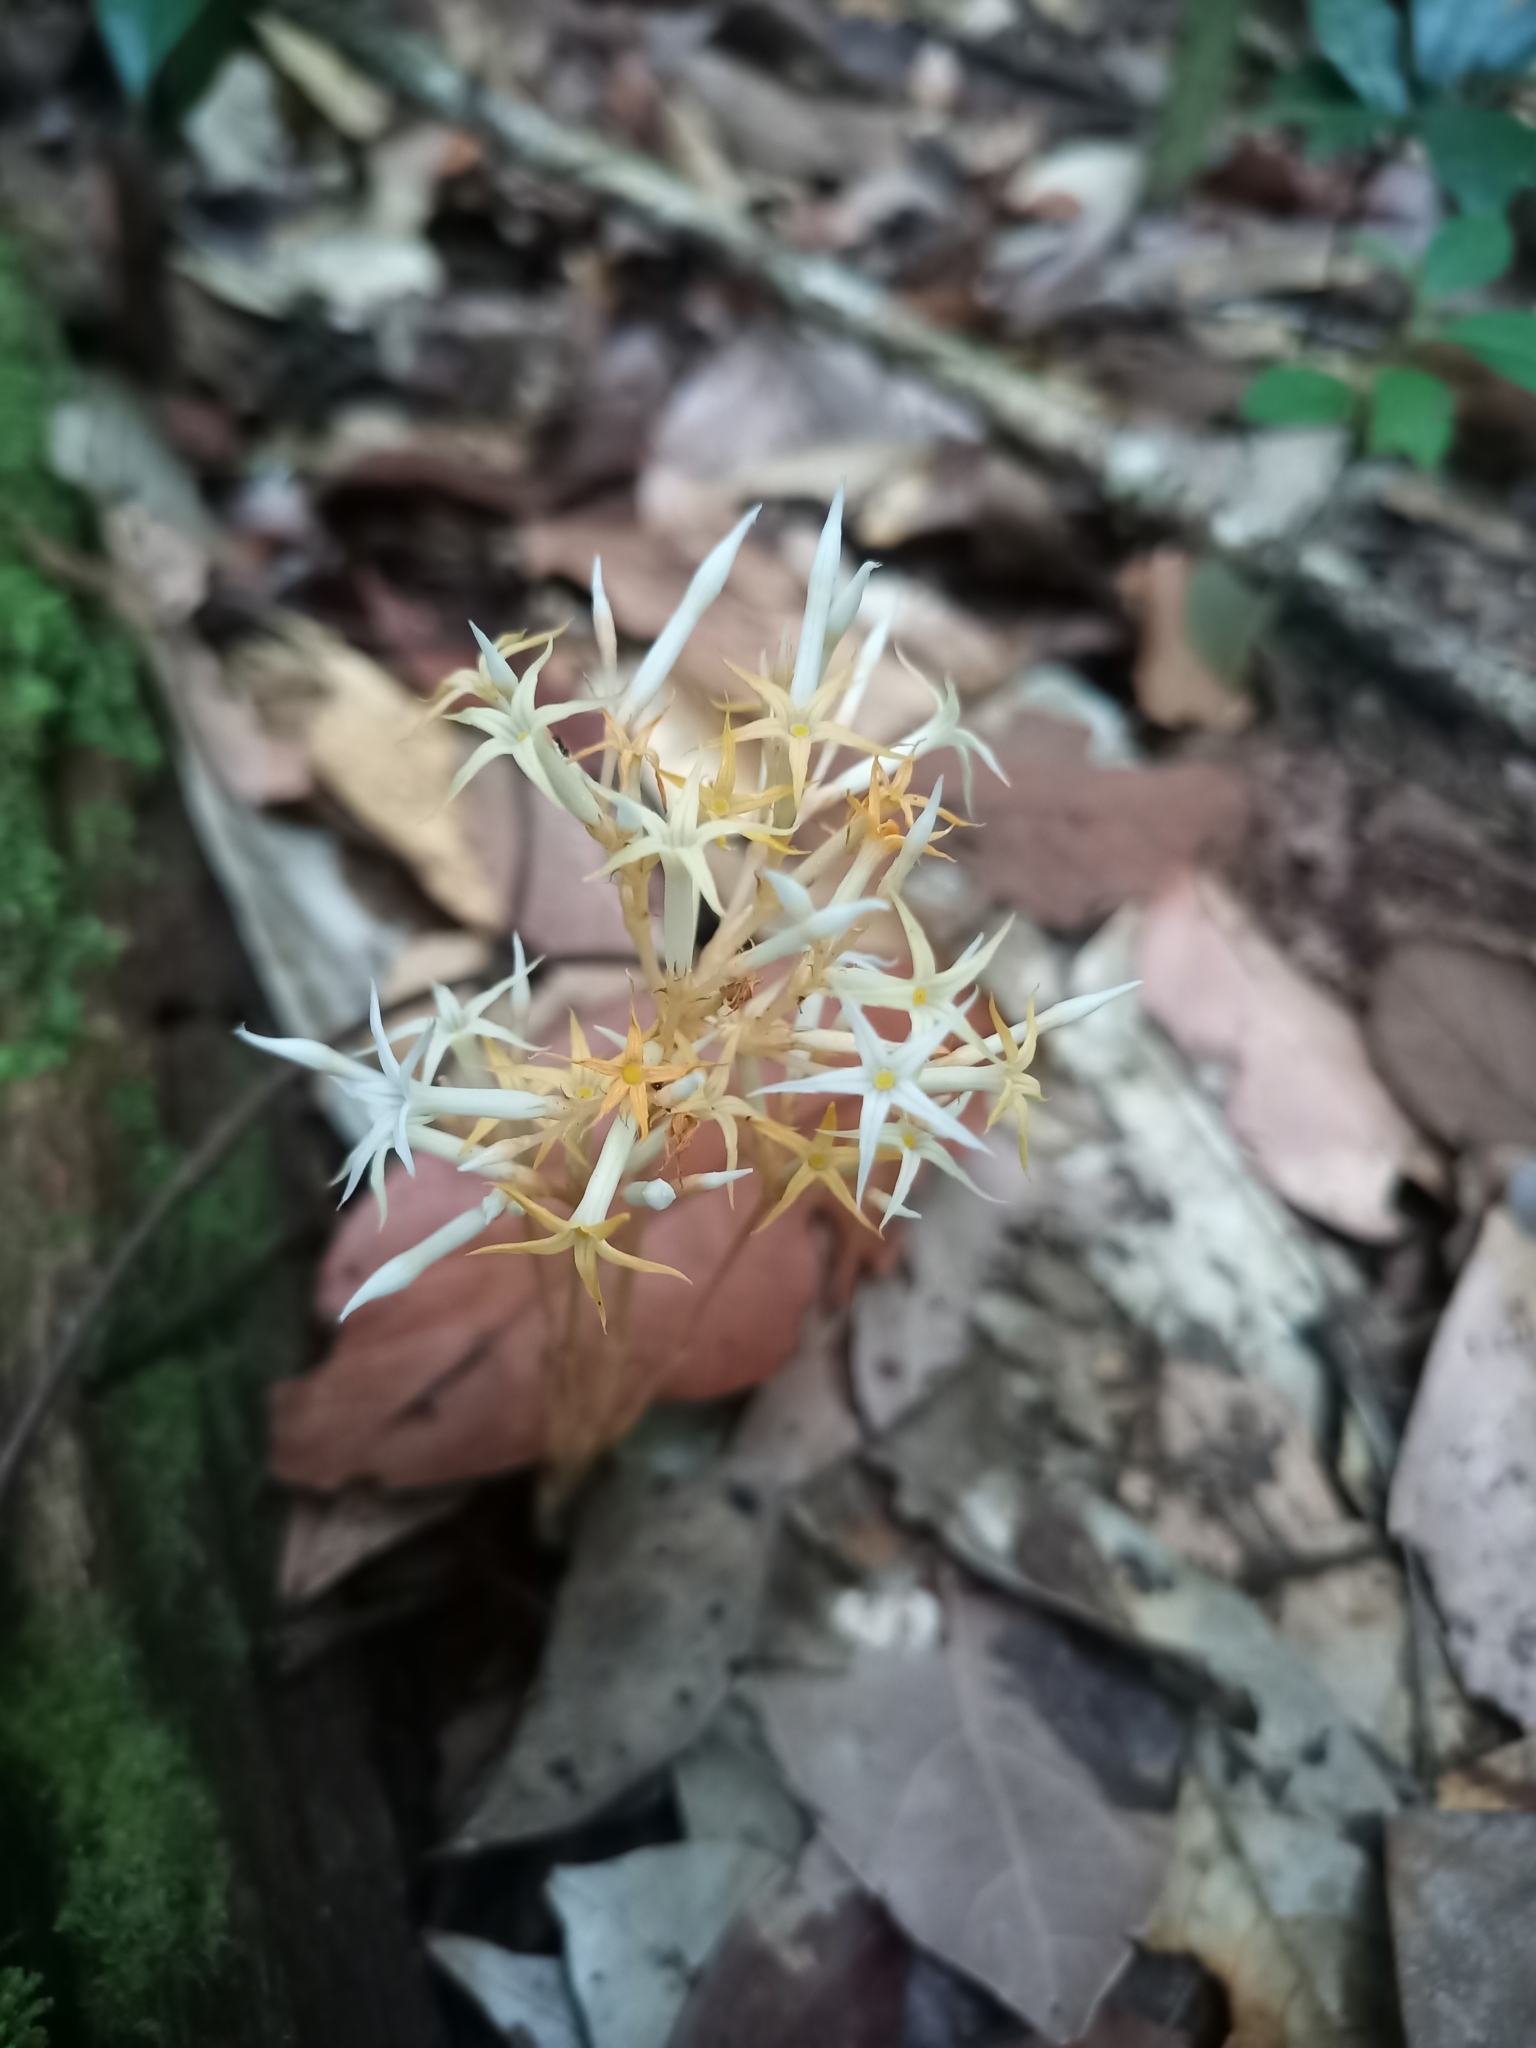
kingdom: Plantae
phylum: Tracheophyta
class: Magnoliopsida
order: Gentianales
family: Gentianaceae
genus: Voyria
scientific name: Voyria corymbosa
